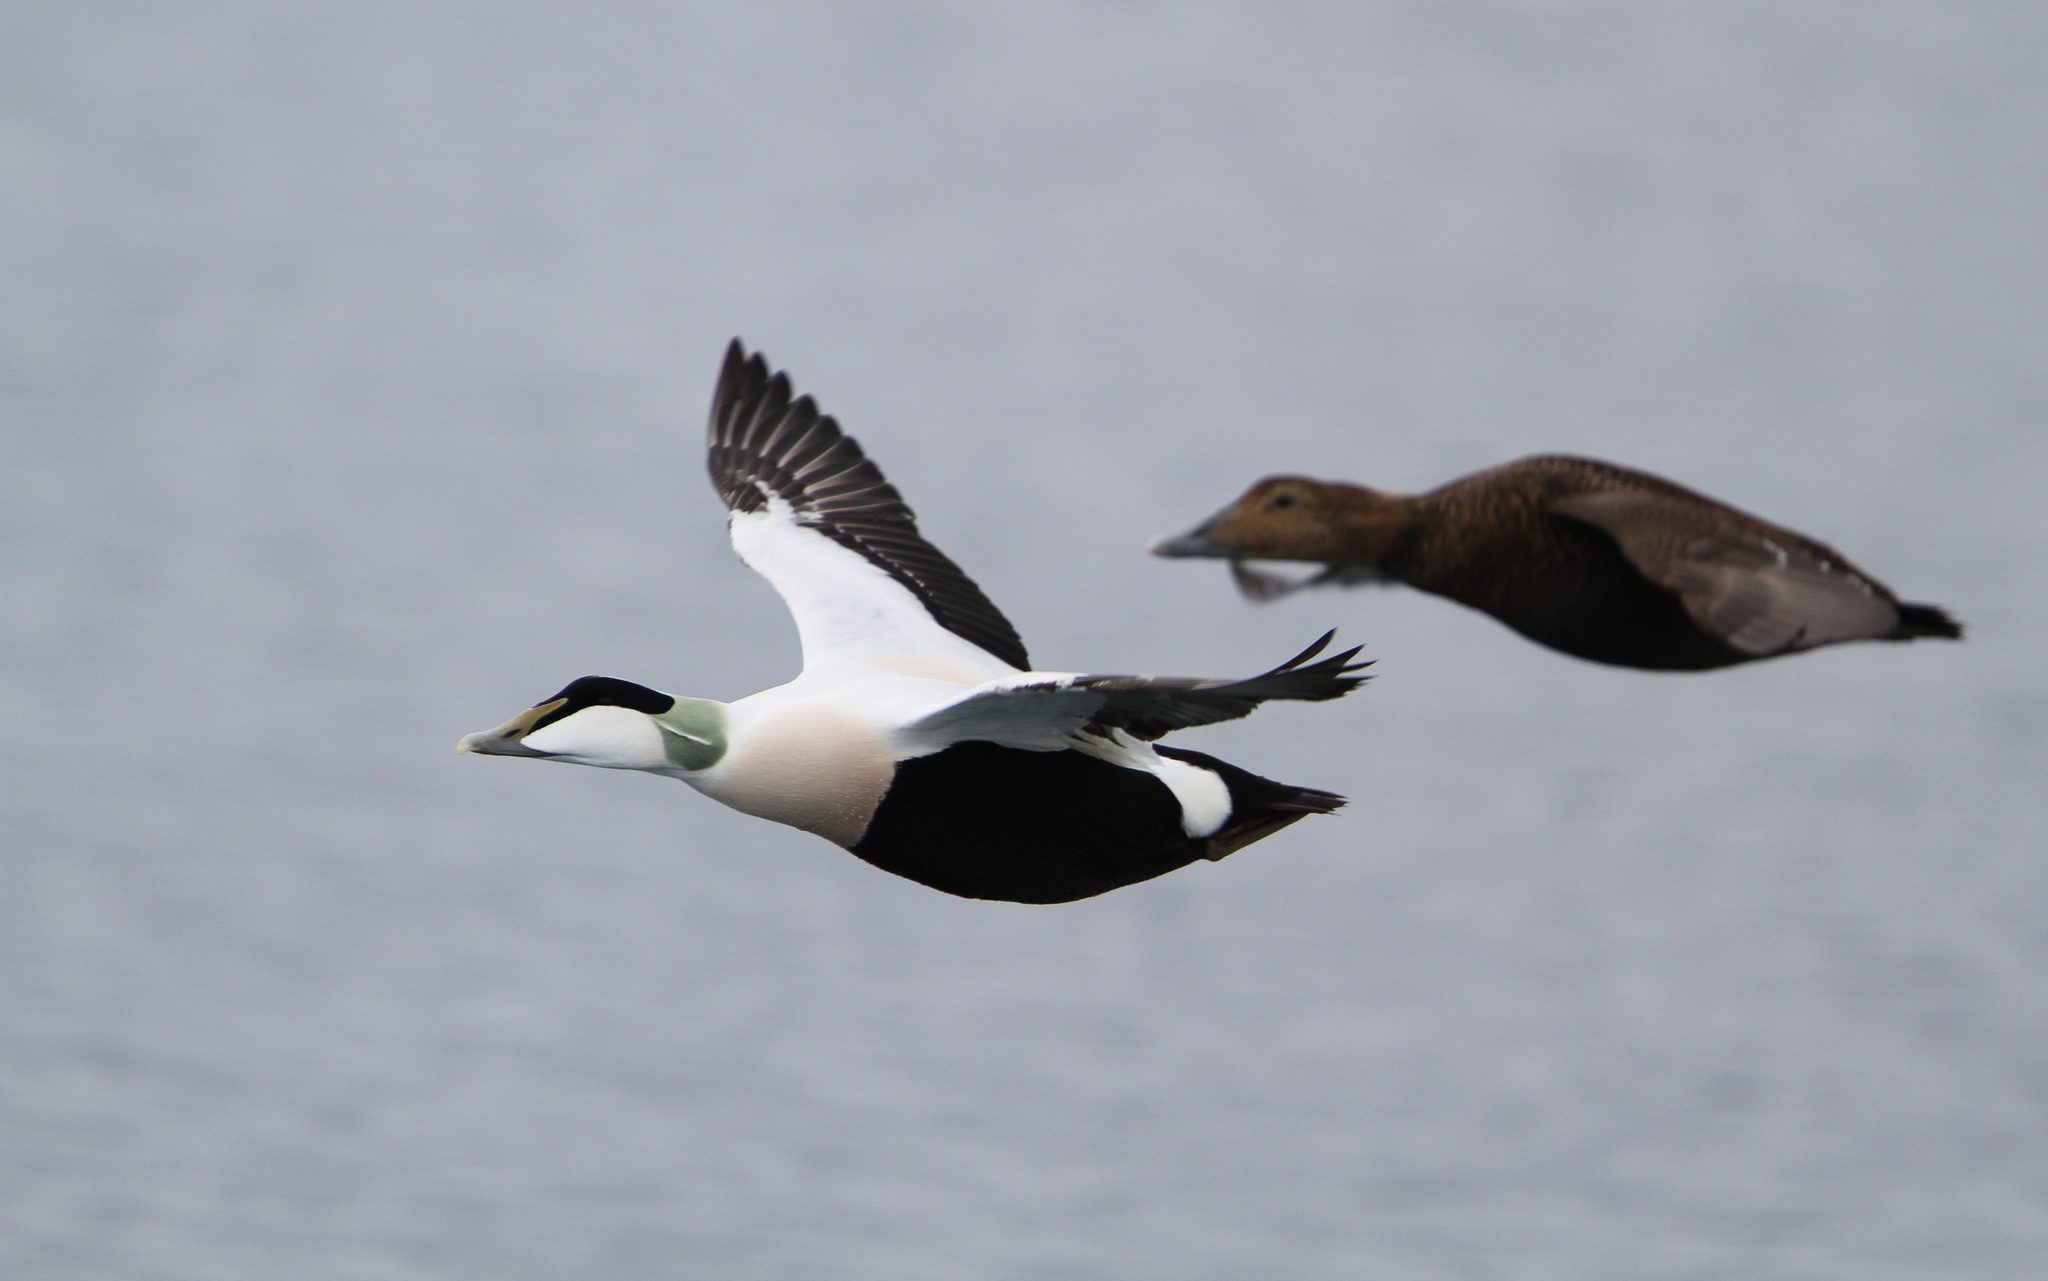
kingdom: Animalia
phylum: Chordata
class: Aves
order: Anseriformes
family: Anatidae
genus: Somateria
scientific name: Somateria mollissima
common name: Common eider
